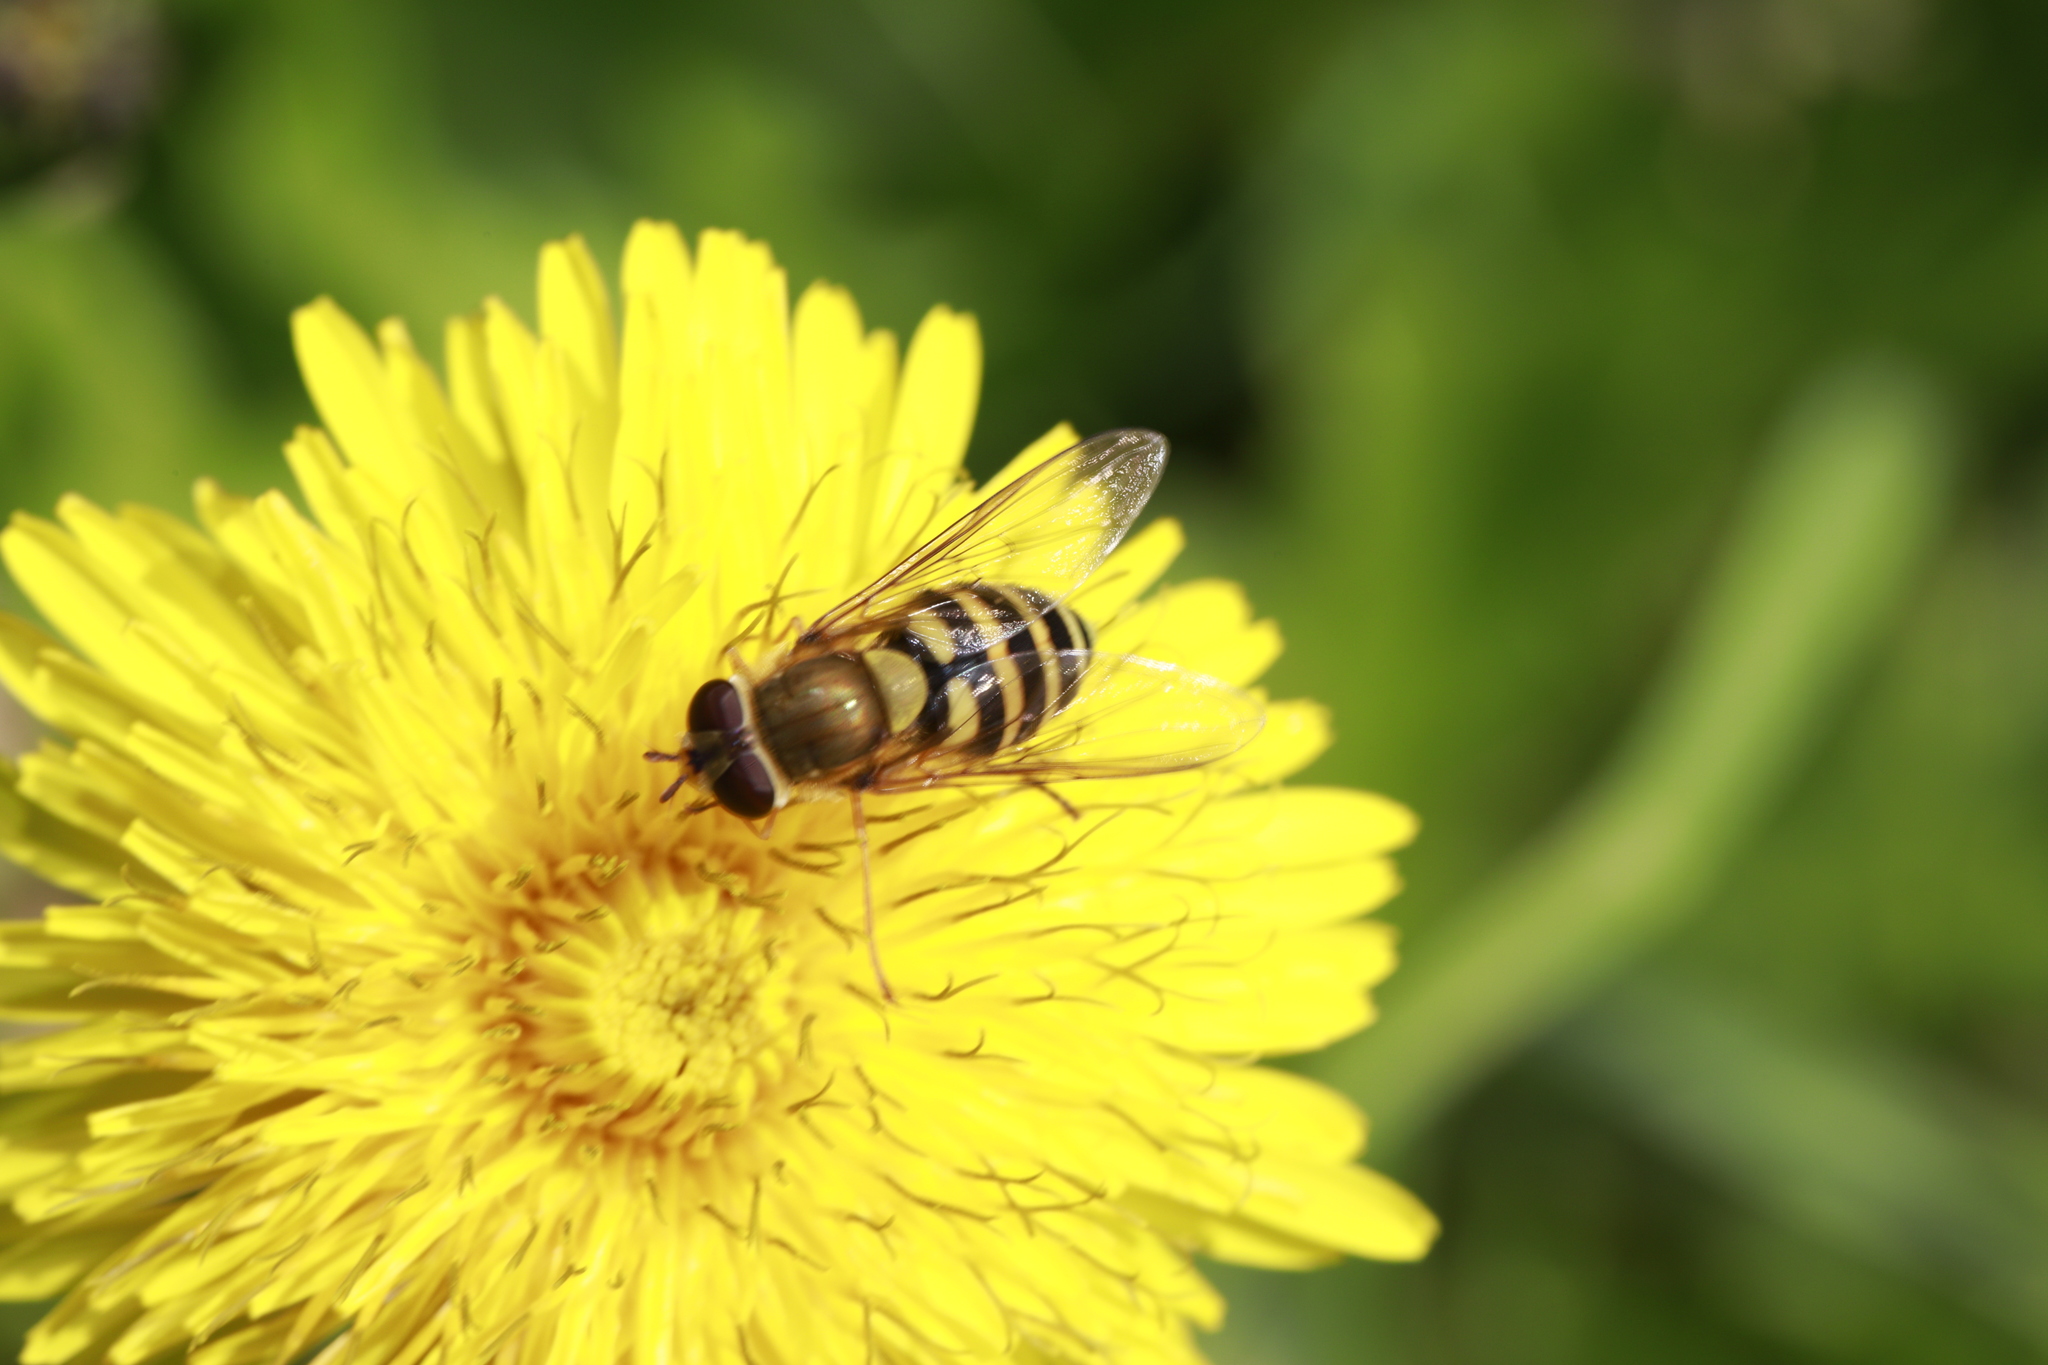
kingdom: Animalia
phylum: Arthropoda
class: Insecta
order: Diptera
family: Syrphidae
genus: Syrphus
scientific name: Syrphus
